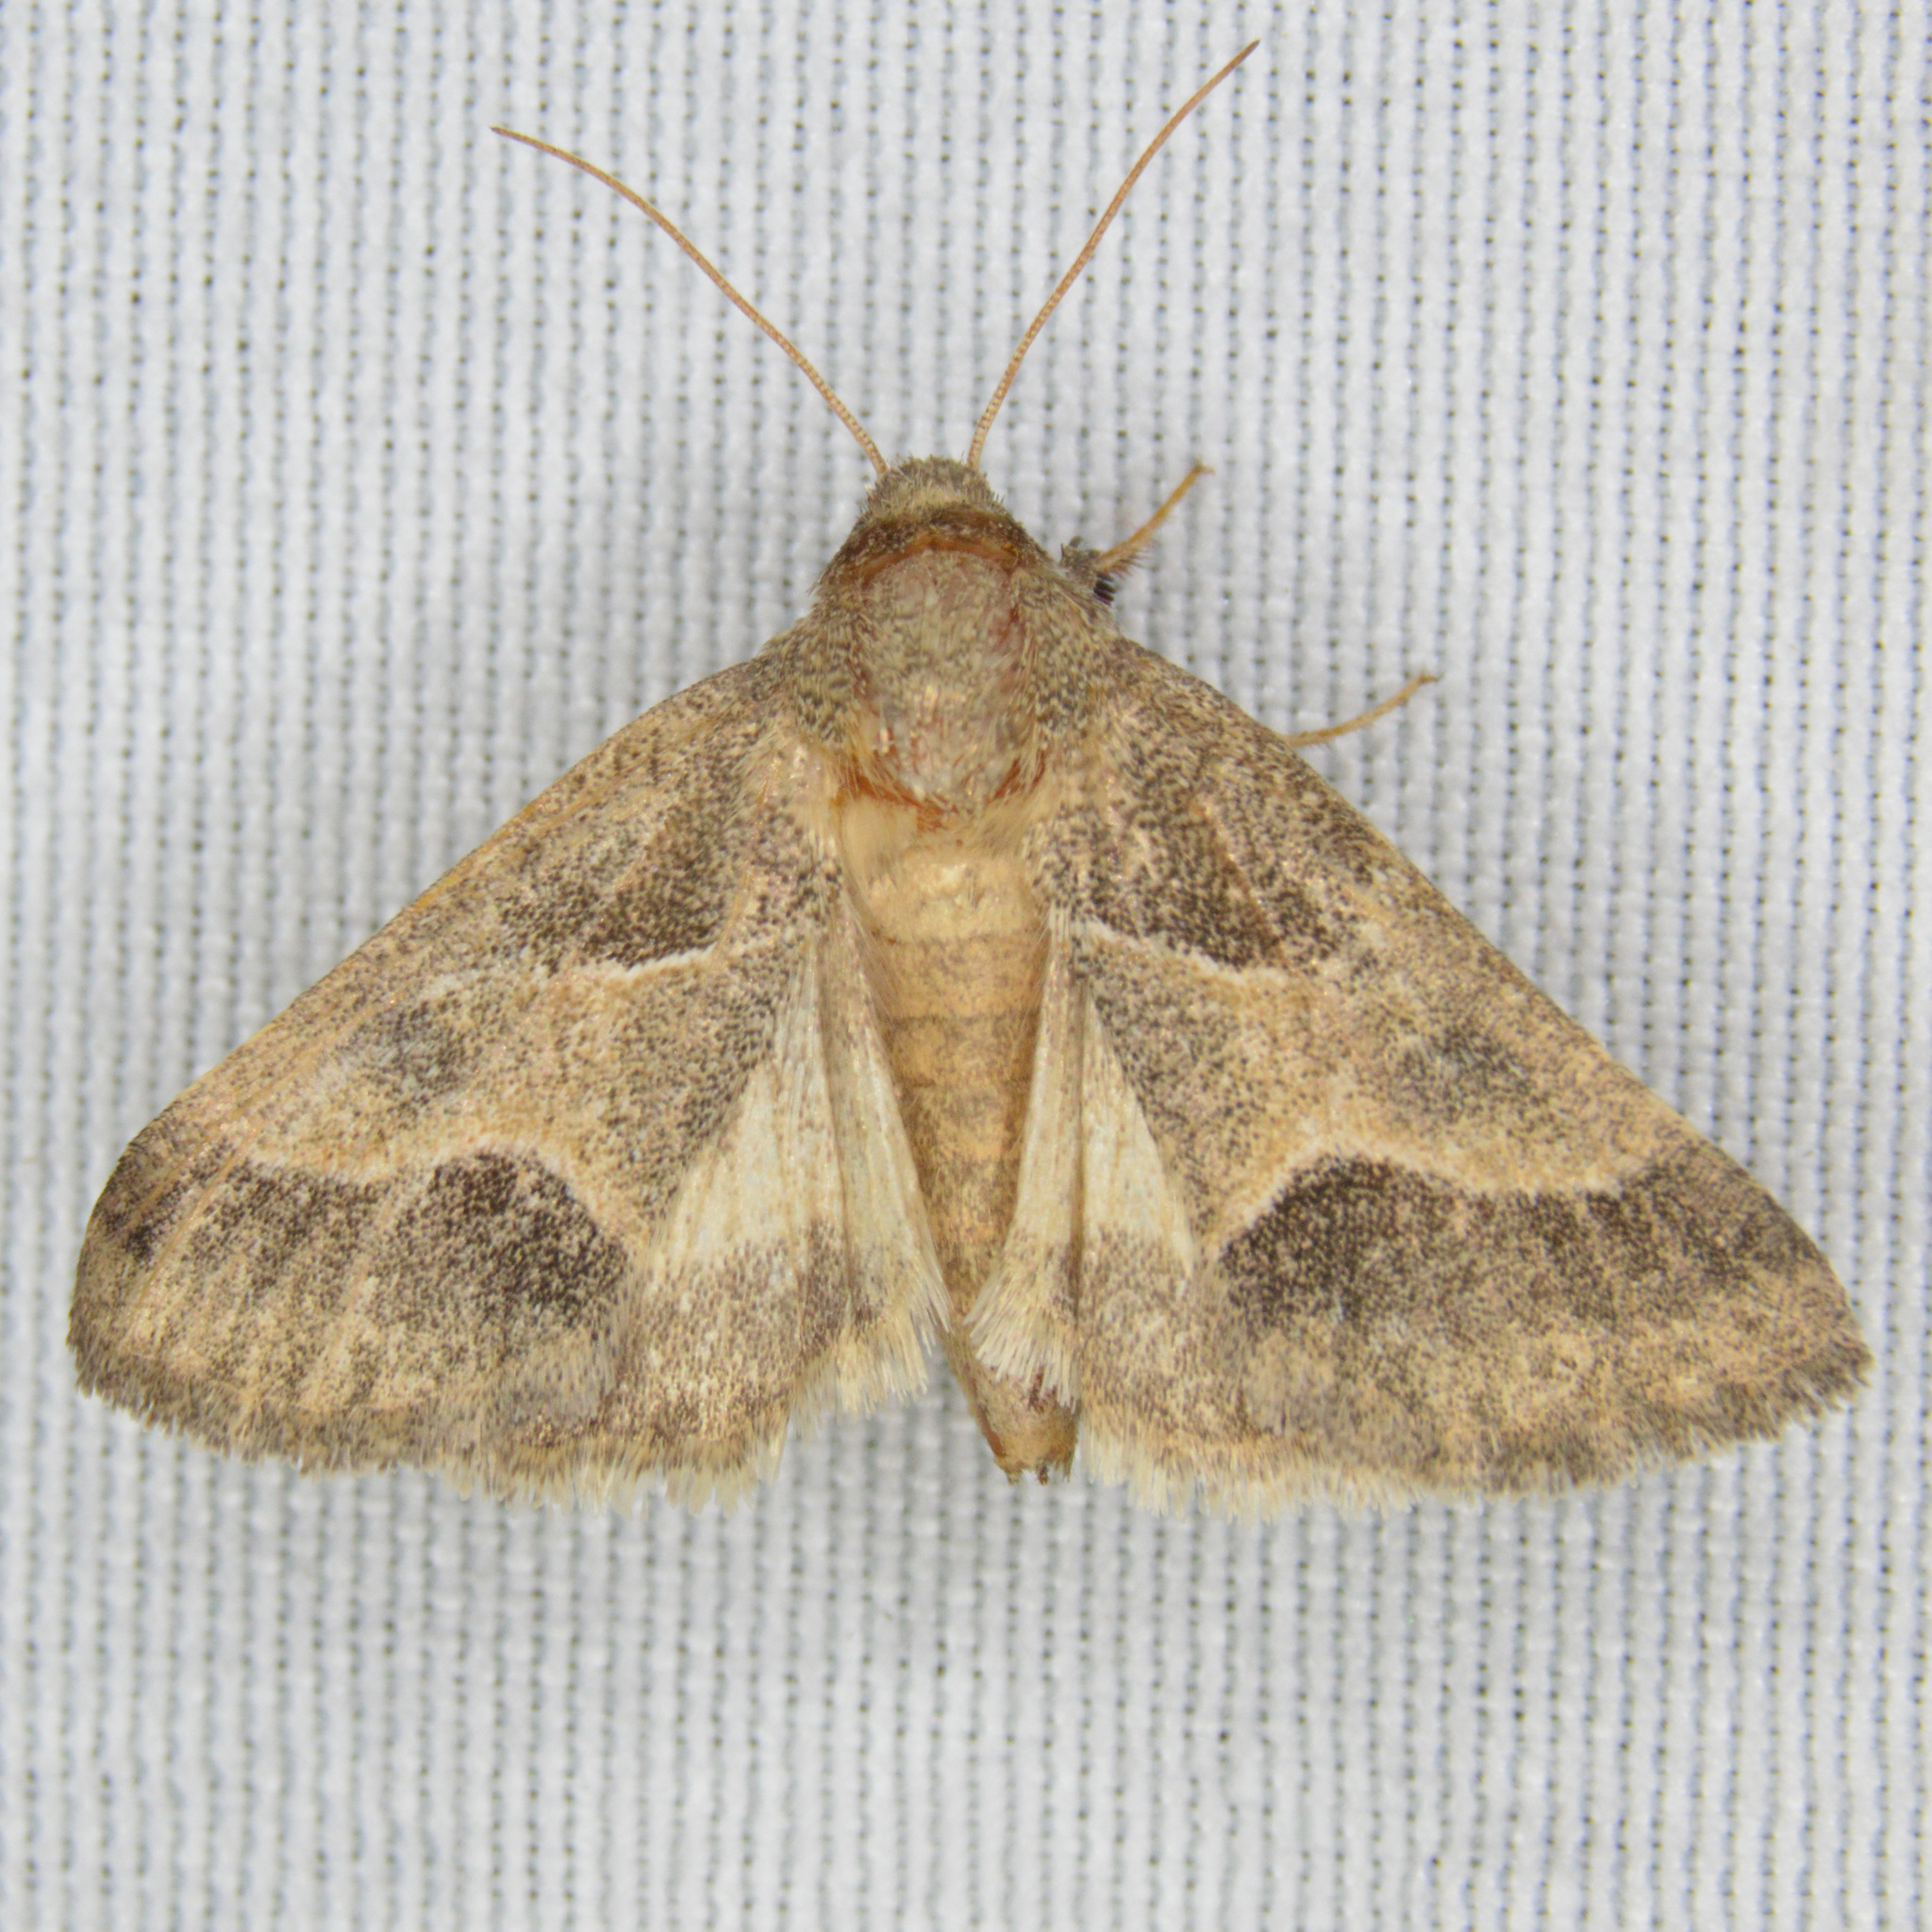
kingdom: Animalia
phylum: Arthropoda
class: Insecta
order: Lepidoptera
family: Noctuidae
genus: Schinia
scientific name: Schinia gracilenta
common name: Slender flower moth
